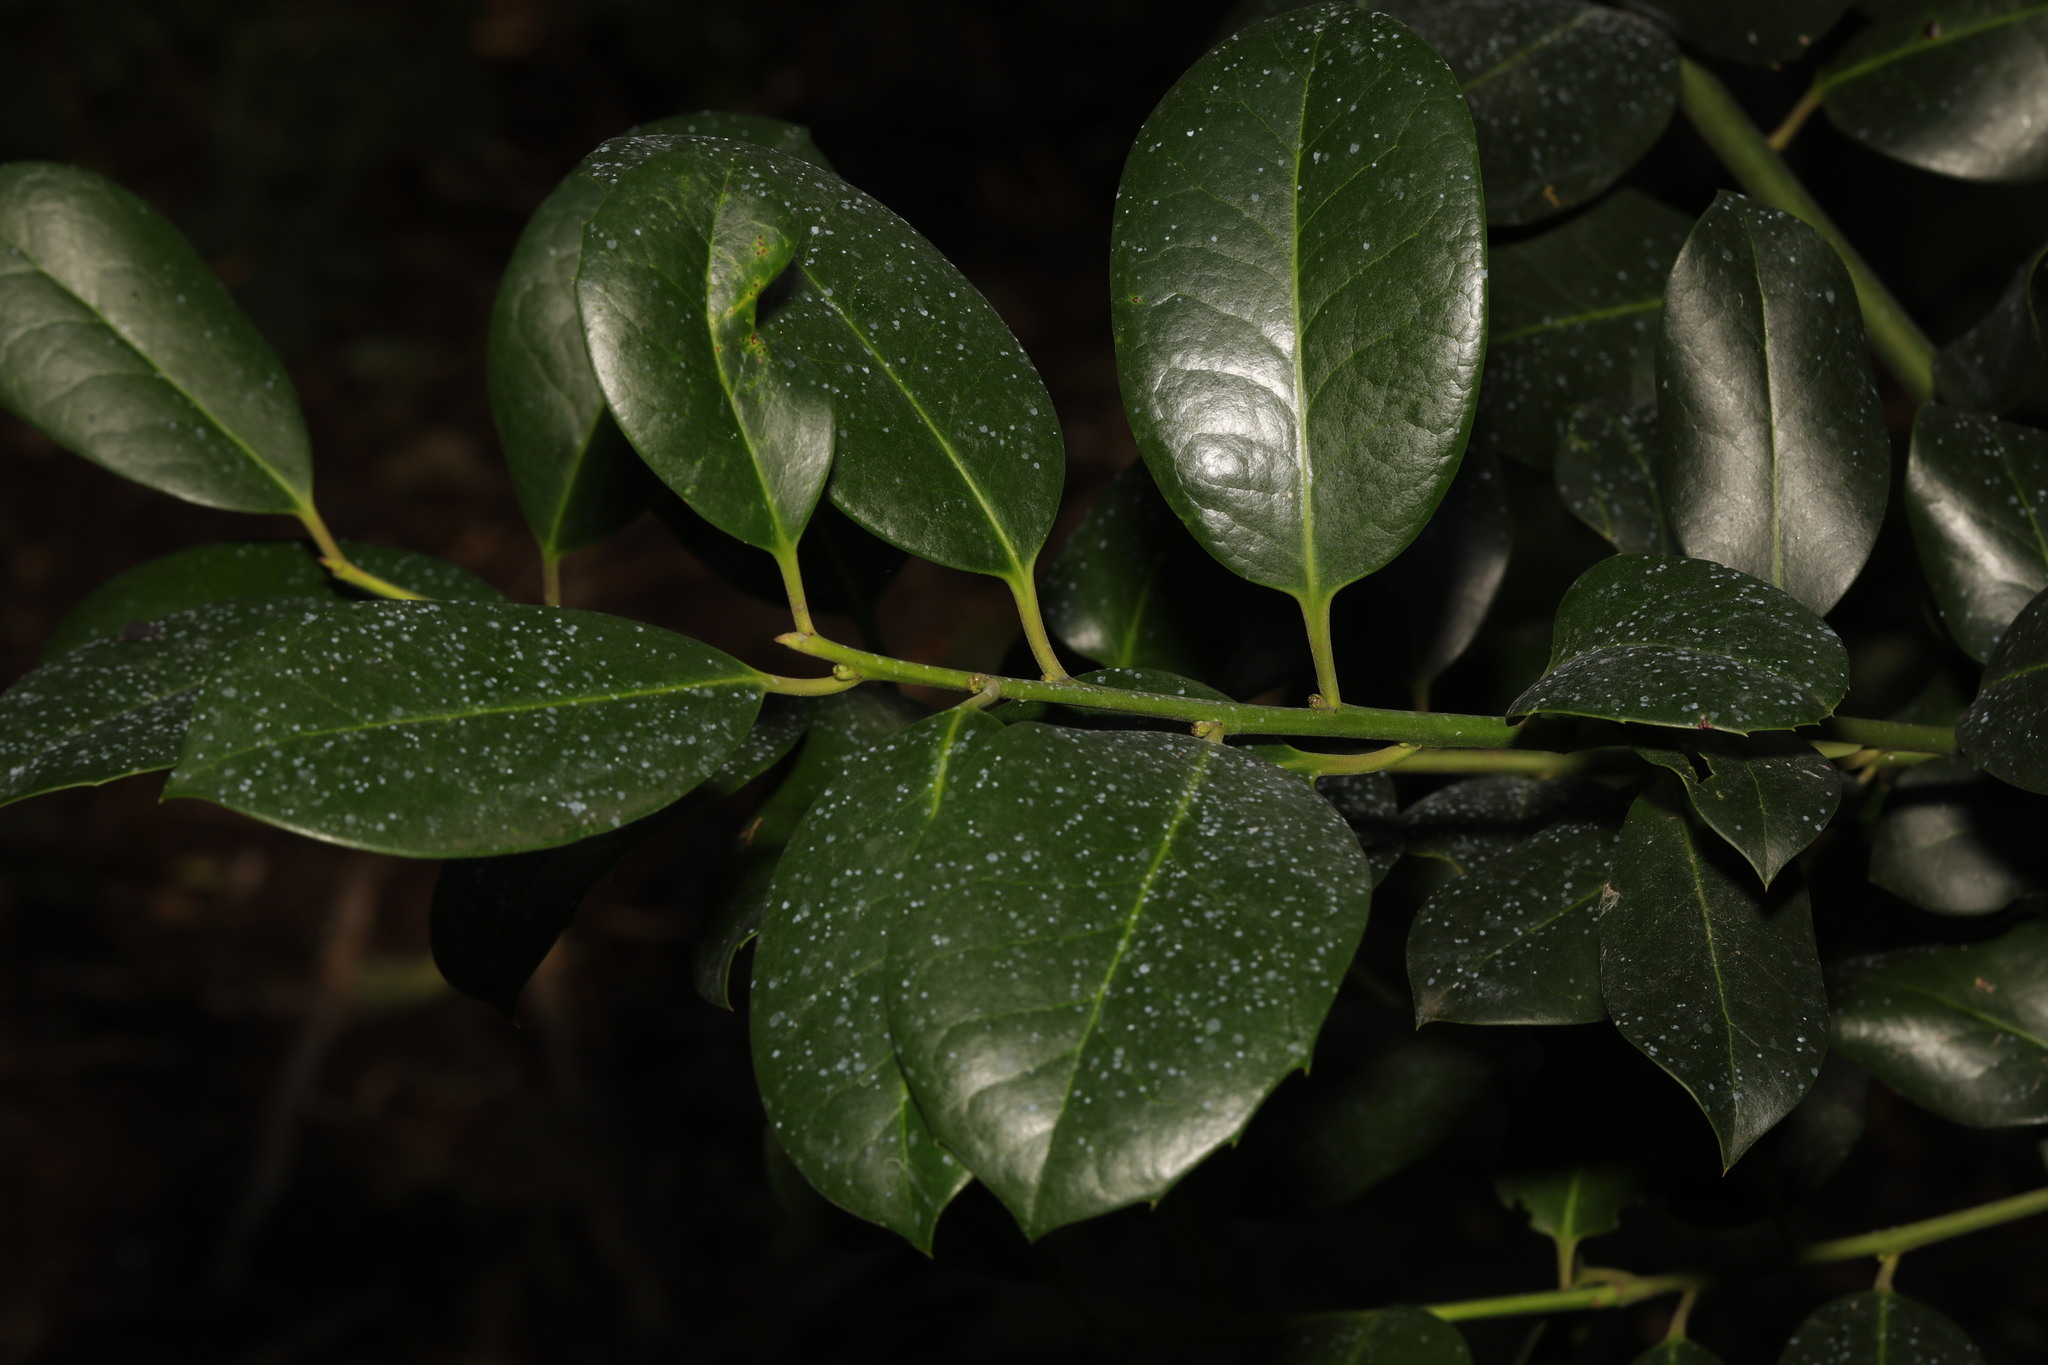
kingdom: Plantae
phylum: Tracheophyta
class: Magnoliopsida
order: Aquifoliales
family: Aquifoliaceae
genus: Ilex
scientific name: Ilex altaclerensis
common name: Highclere holly
